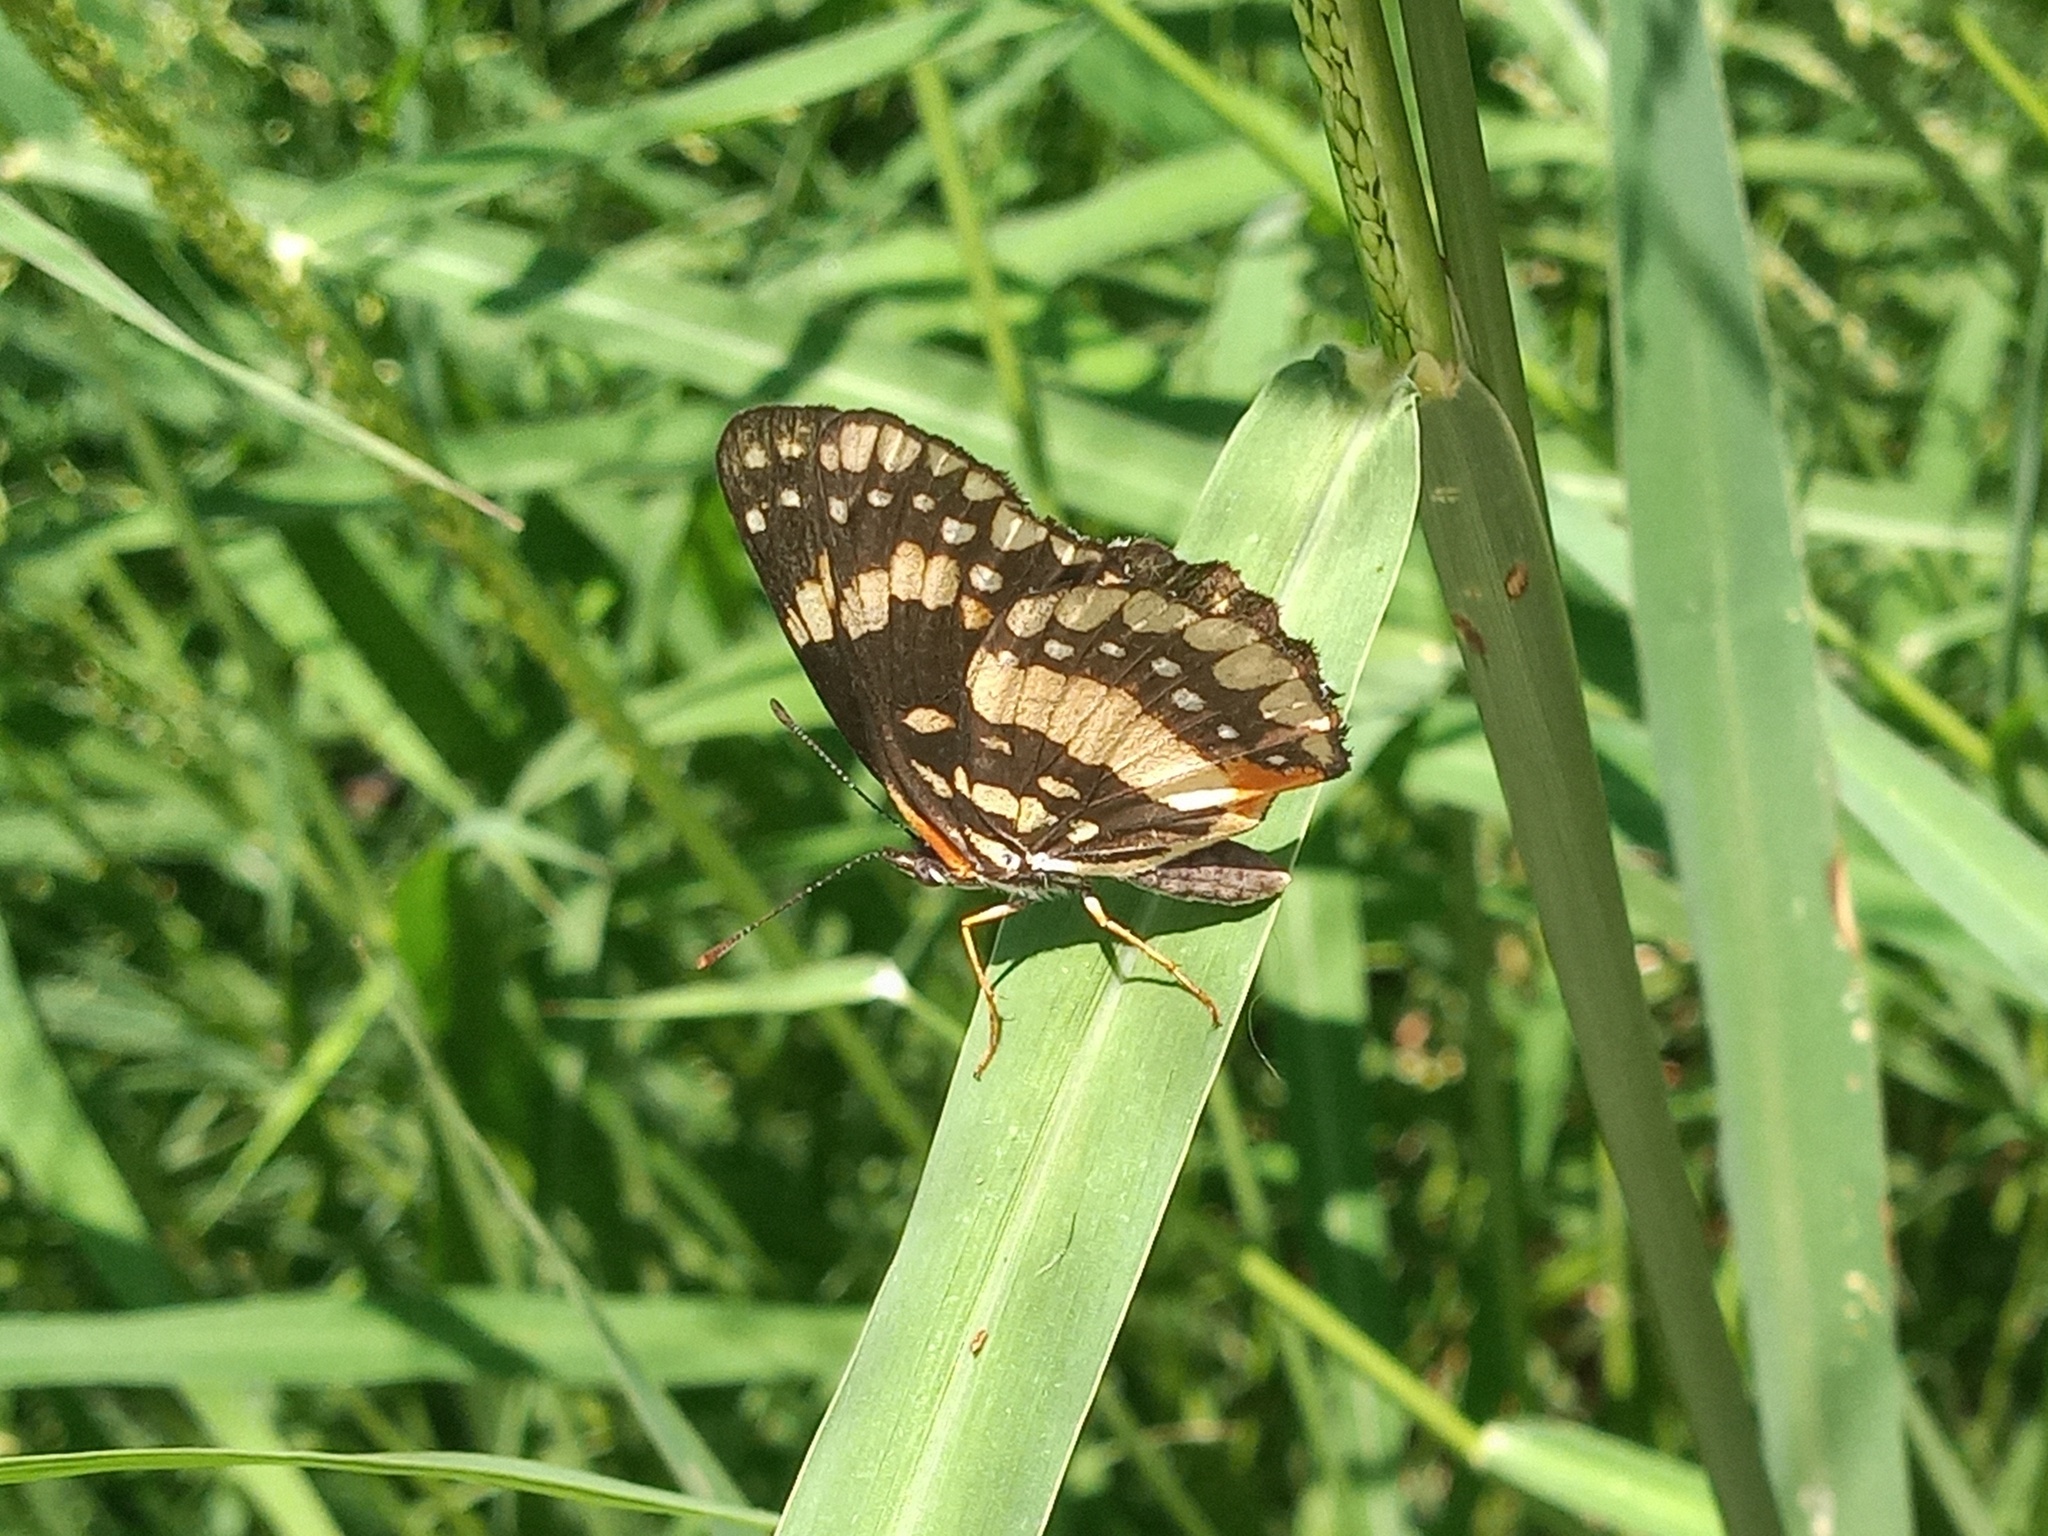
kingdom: Animalia
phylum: Arthropoda
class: Insecta
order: Lepidoptera
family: Nymphalidae
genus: Chlosyne
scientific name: Chlosyne lacinia
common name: Bordered patch
